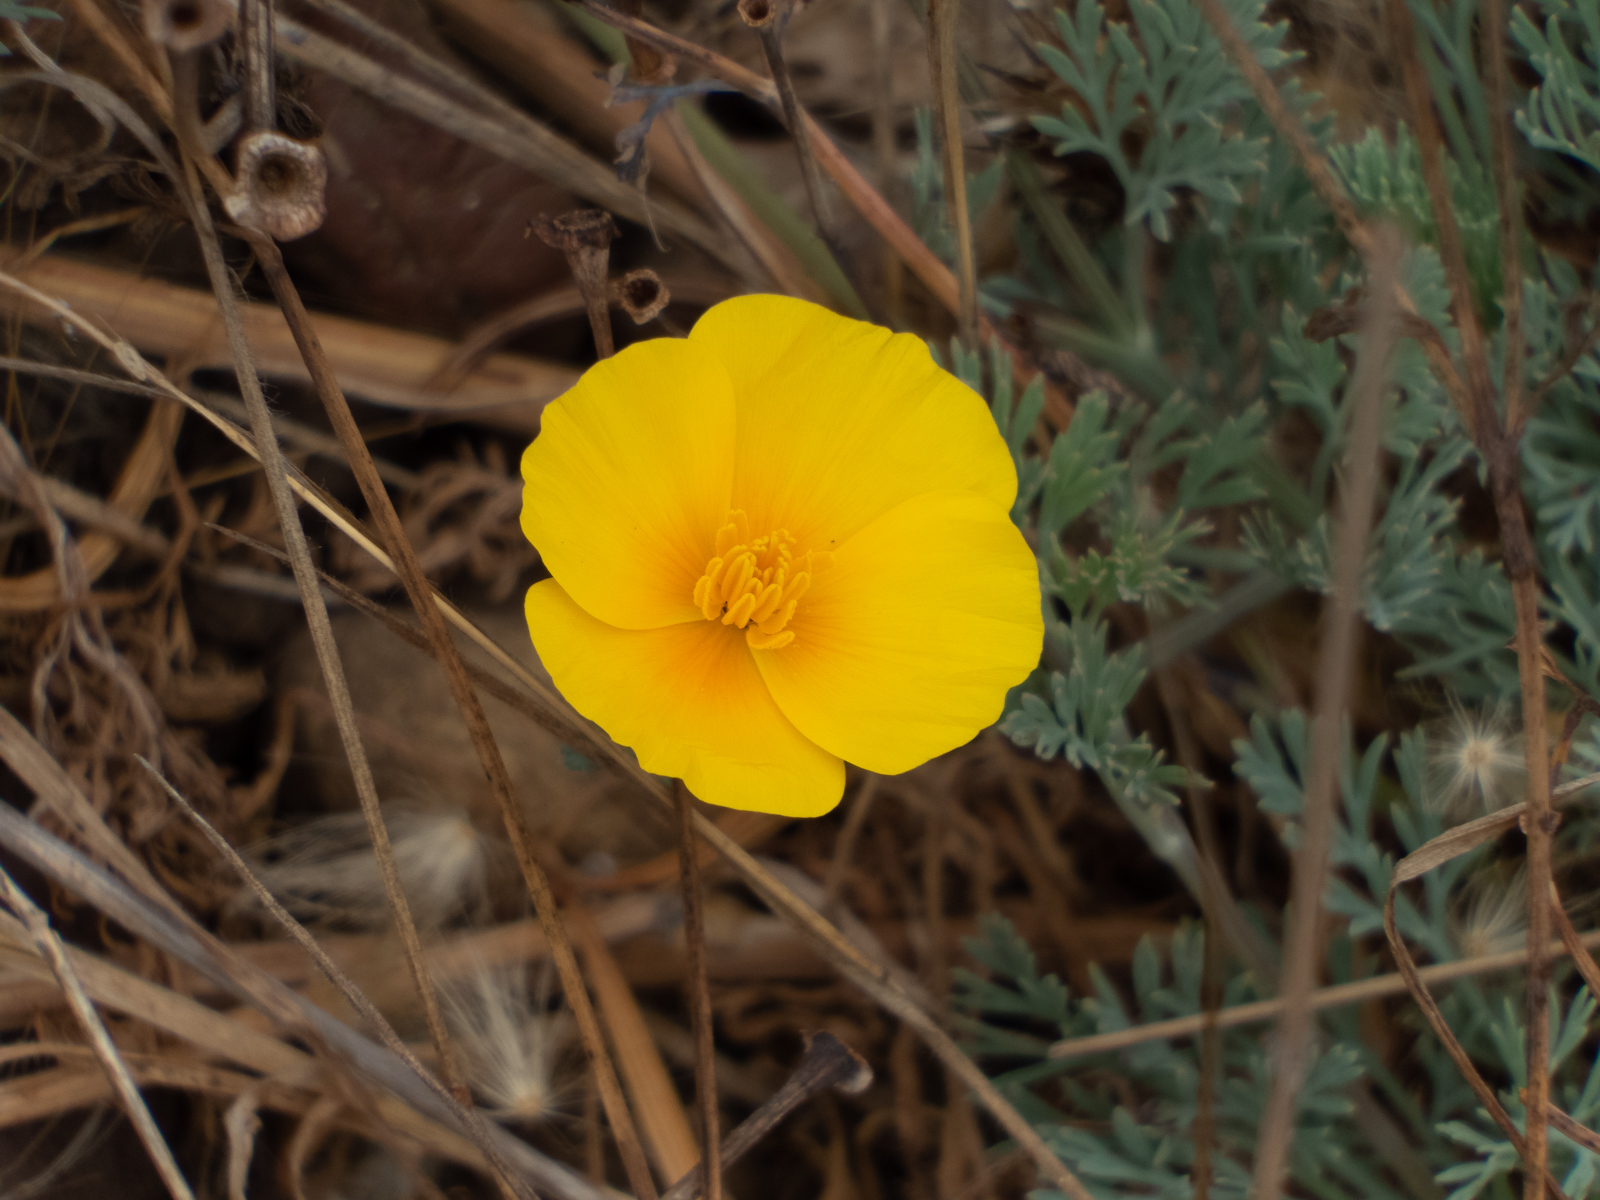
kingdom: Plantae
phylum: Tracheophyta
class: Magnoliopsida
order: Ranunculales
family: Papaveraceae
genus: Eschscholzia
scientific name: Eschscholzia californica
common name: California poppy
